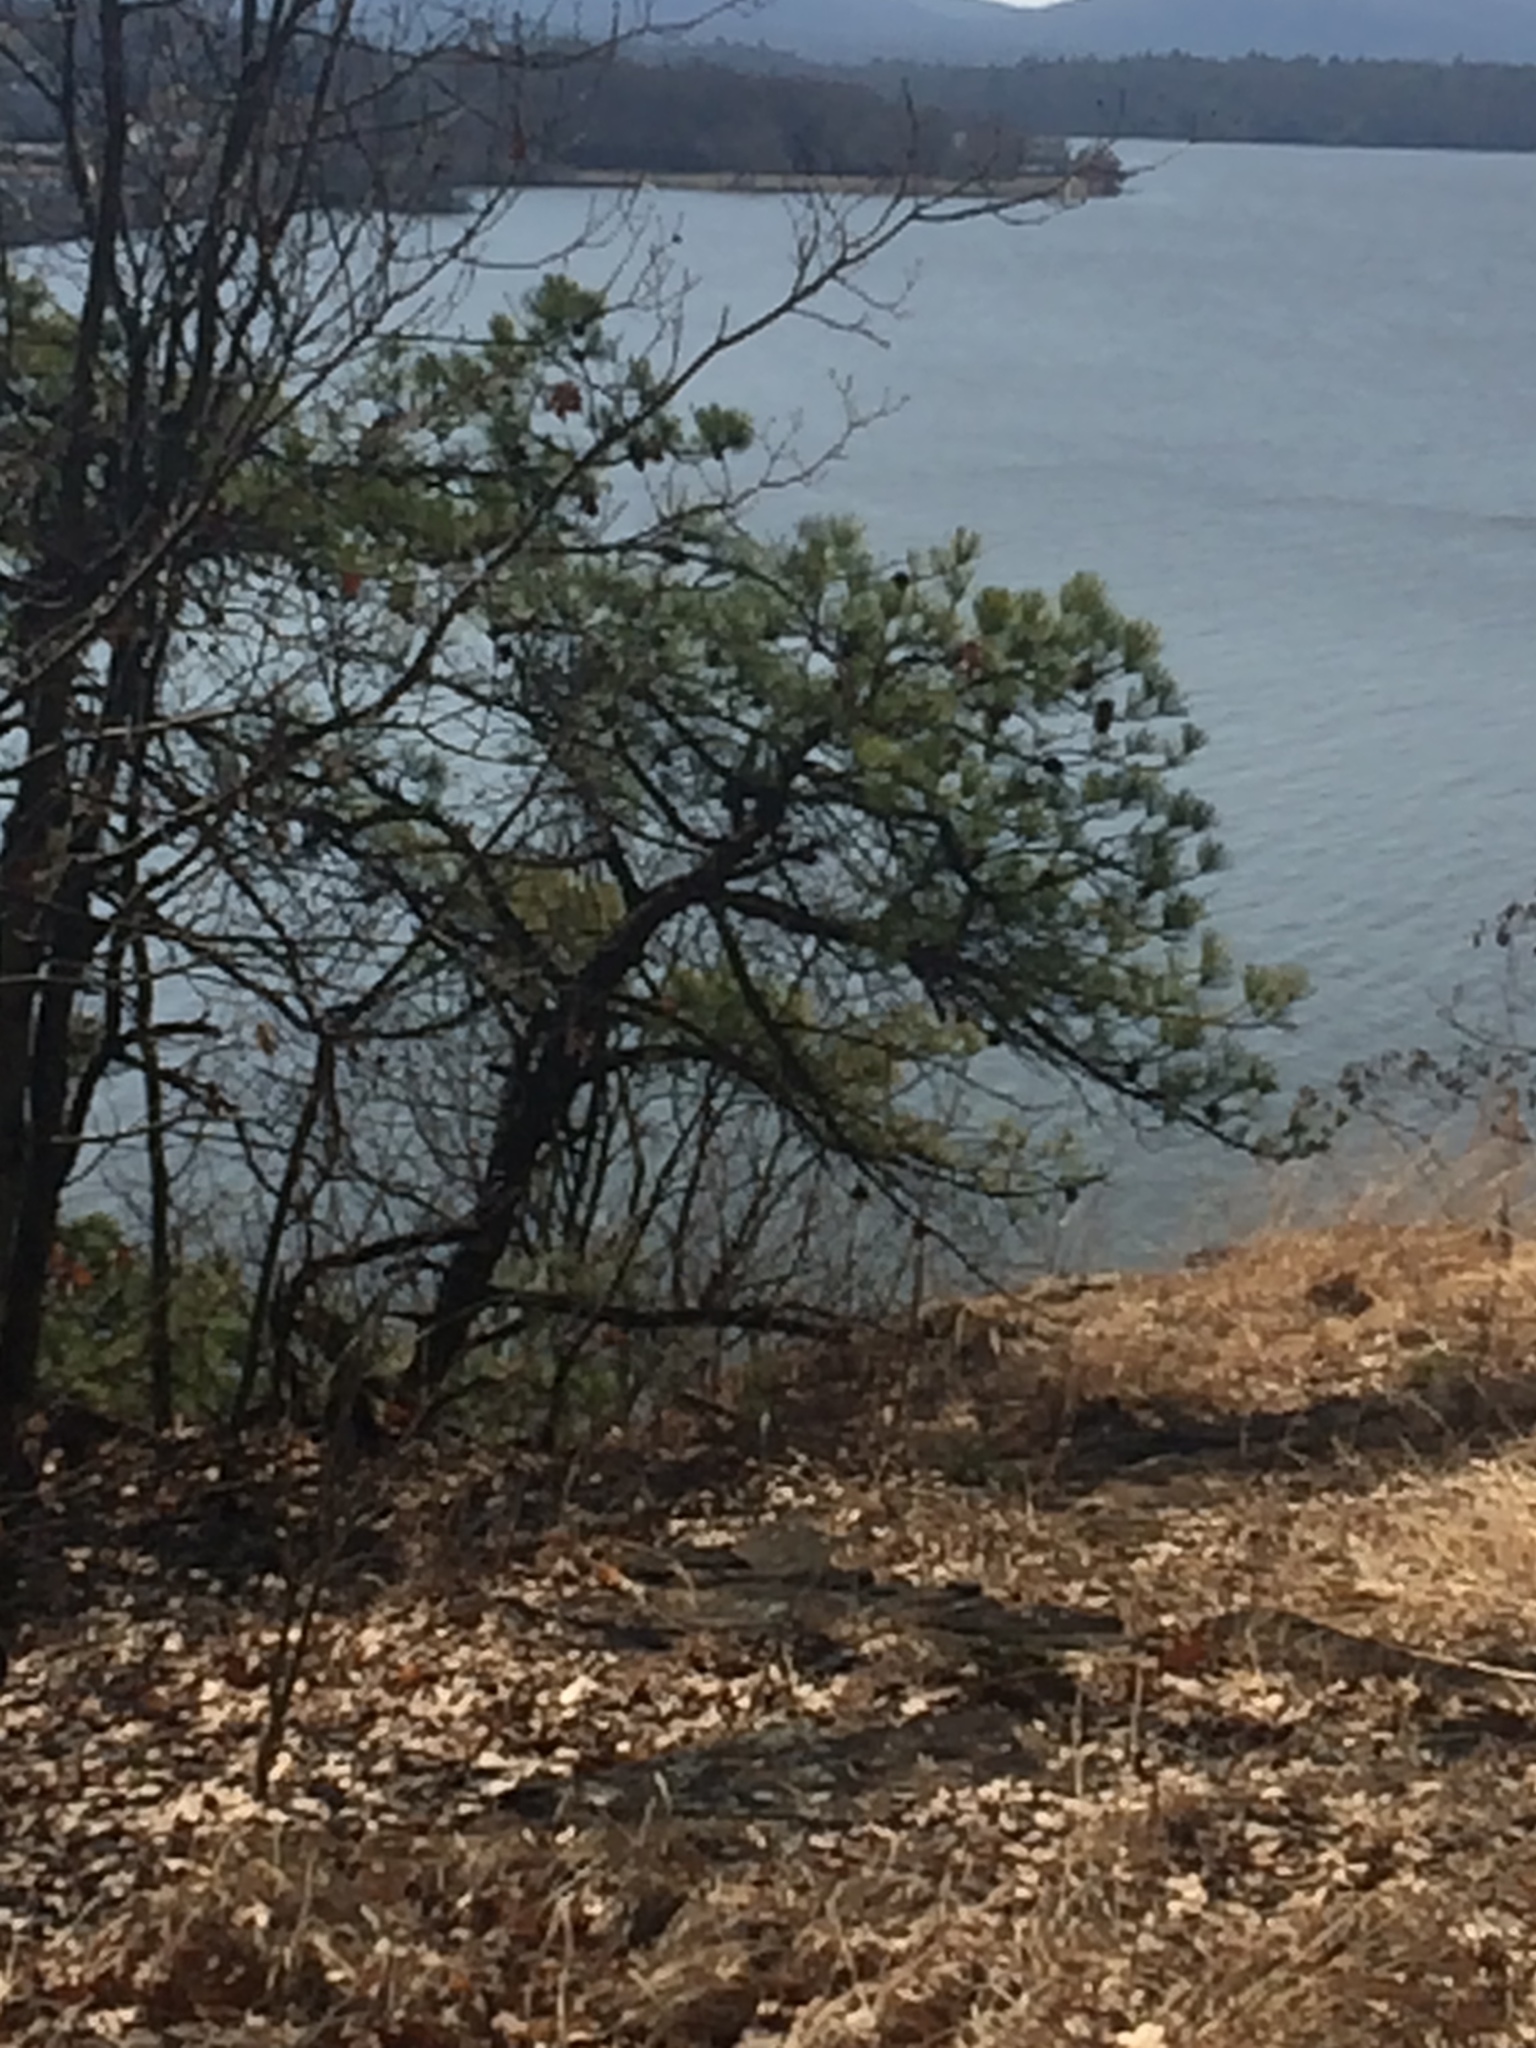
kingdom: Plantae
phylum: Tracheophyta
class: Pinopsida
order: Pinales
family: Pinaceae
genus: Pinus
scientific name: Pinus rigida
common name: Pitch pine
